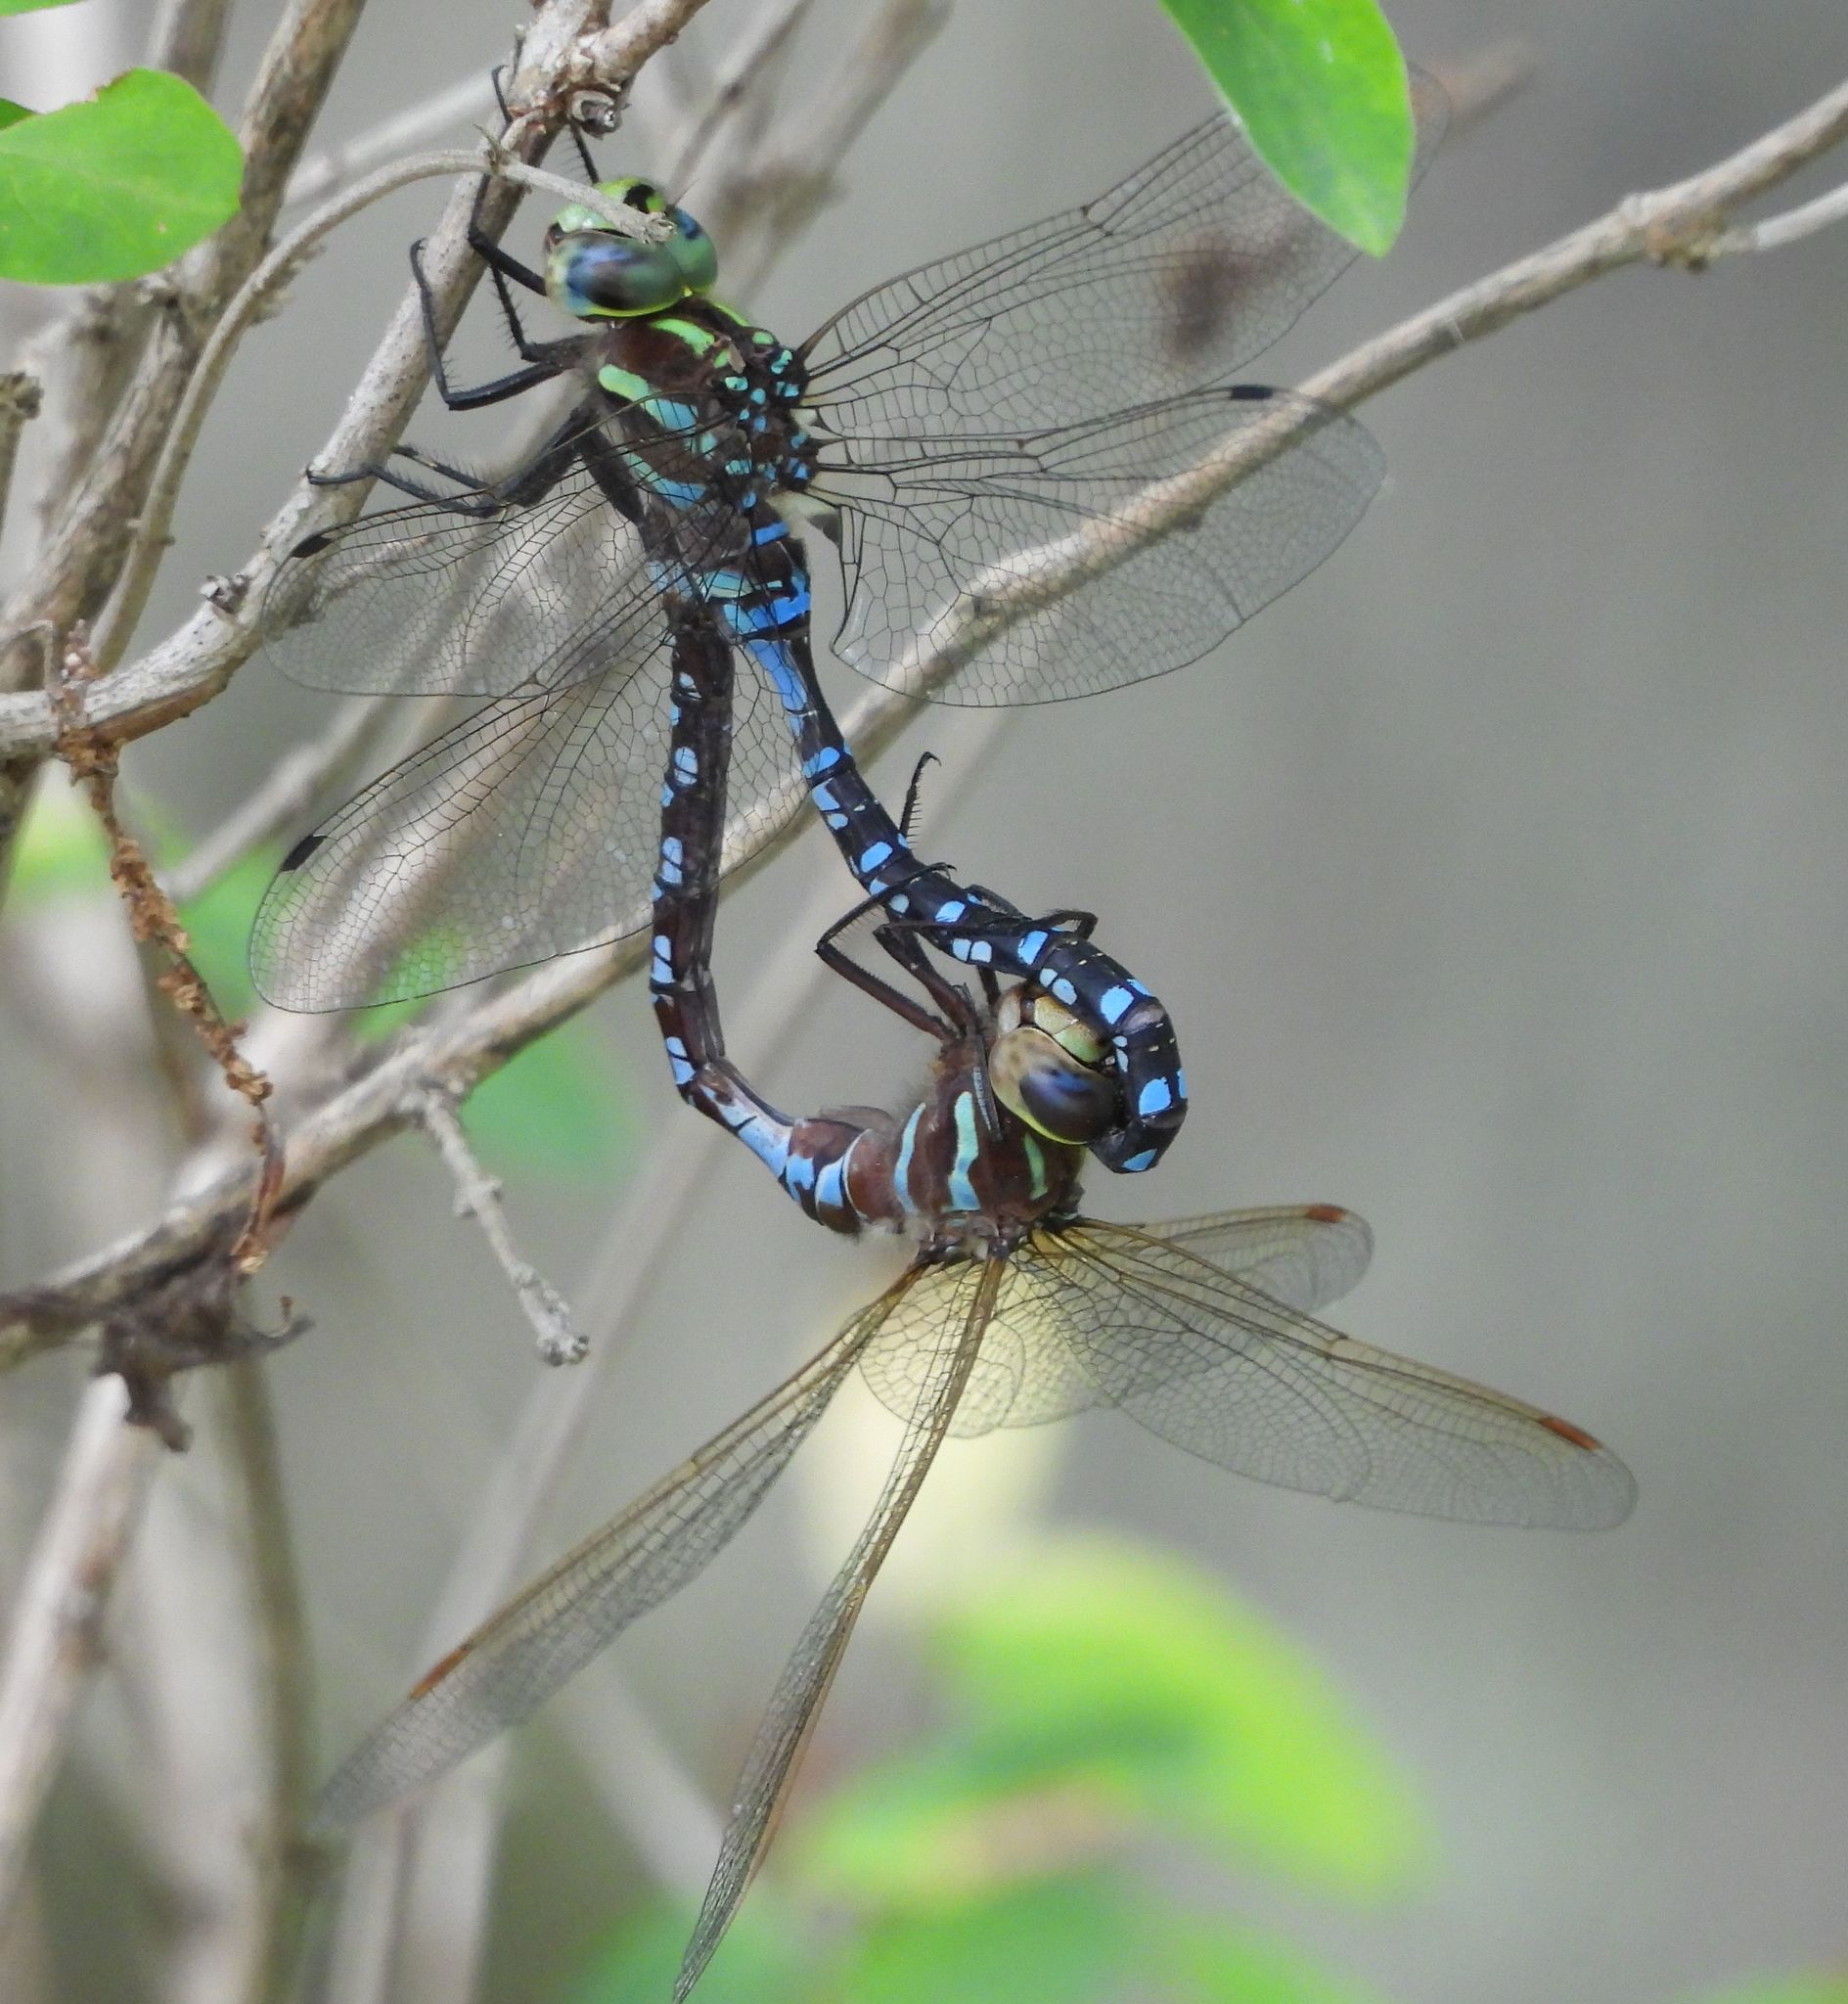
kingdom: Animalia
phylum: Arthropoda
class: Insecta
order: Odonata
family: Aeshnidae
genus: Aeshna
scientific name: Aeshna constricta
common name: Lance-tipped darner
